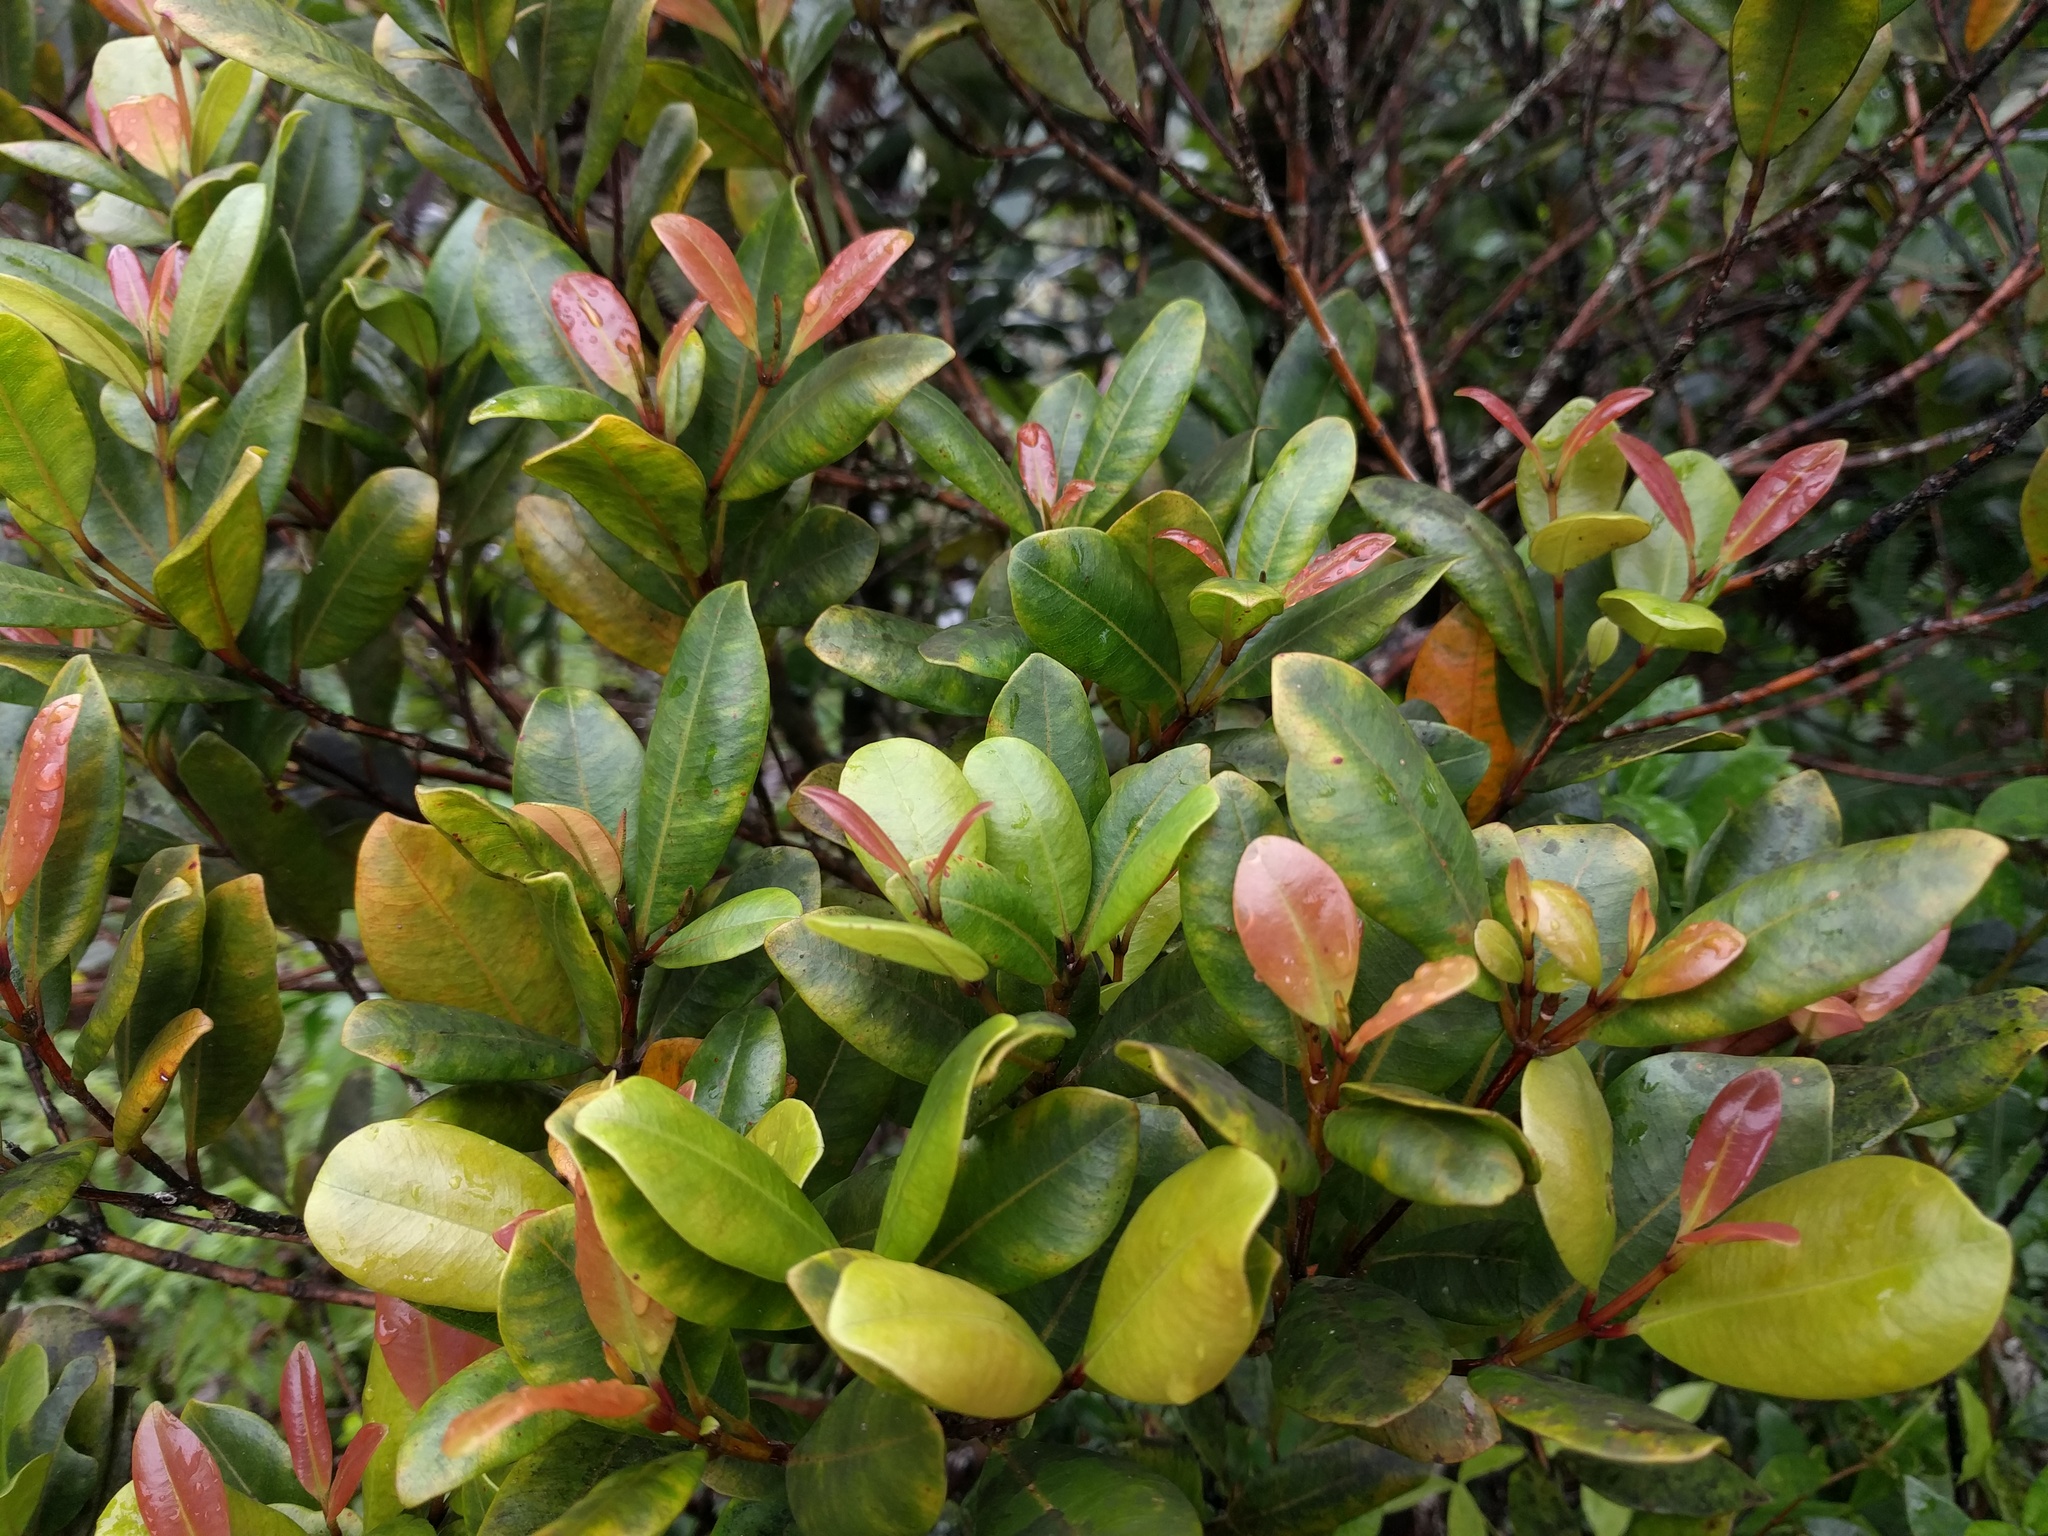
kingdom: Plantae
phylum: Tracheophyta
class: Magnoliopsida
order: Myrtales
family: Myrtaceae
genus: Syzygium
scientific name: Syzygium sandwicense
